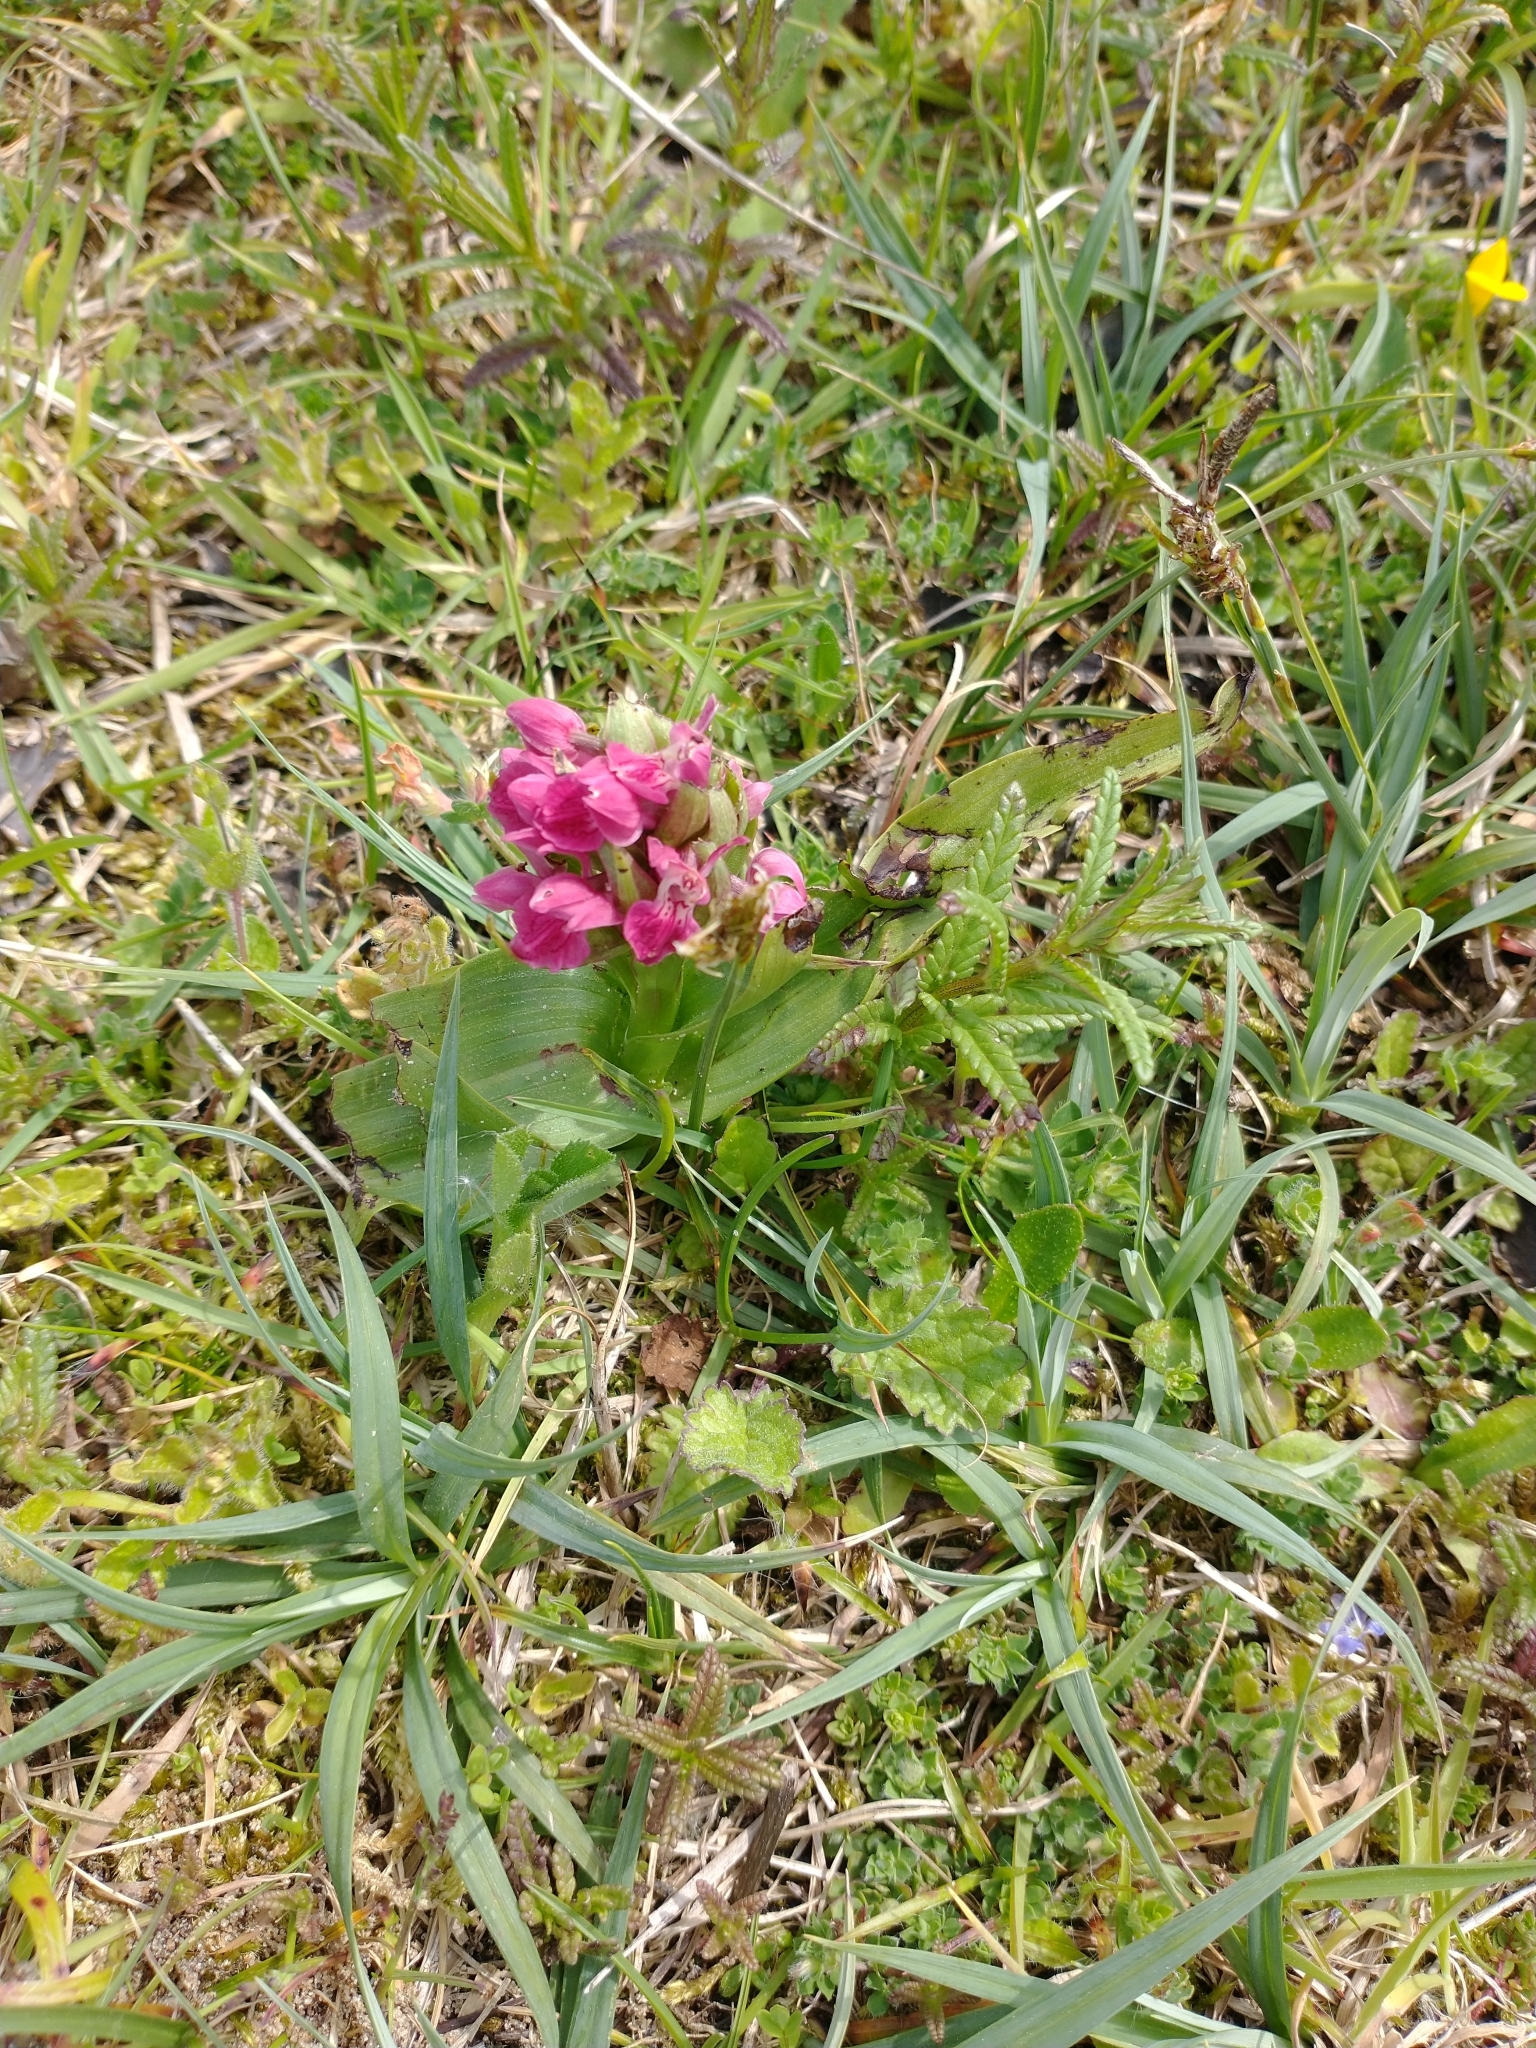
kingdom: Plantae
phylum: Tracheophyta
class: Liliopsida
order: Asparagales
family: Orchidaceae
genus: Dactylorhiza
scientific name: Dactylorhiza incarnata
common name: Early marsh-orchid
